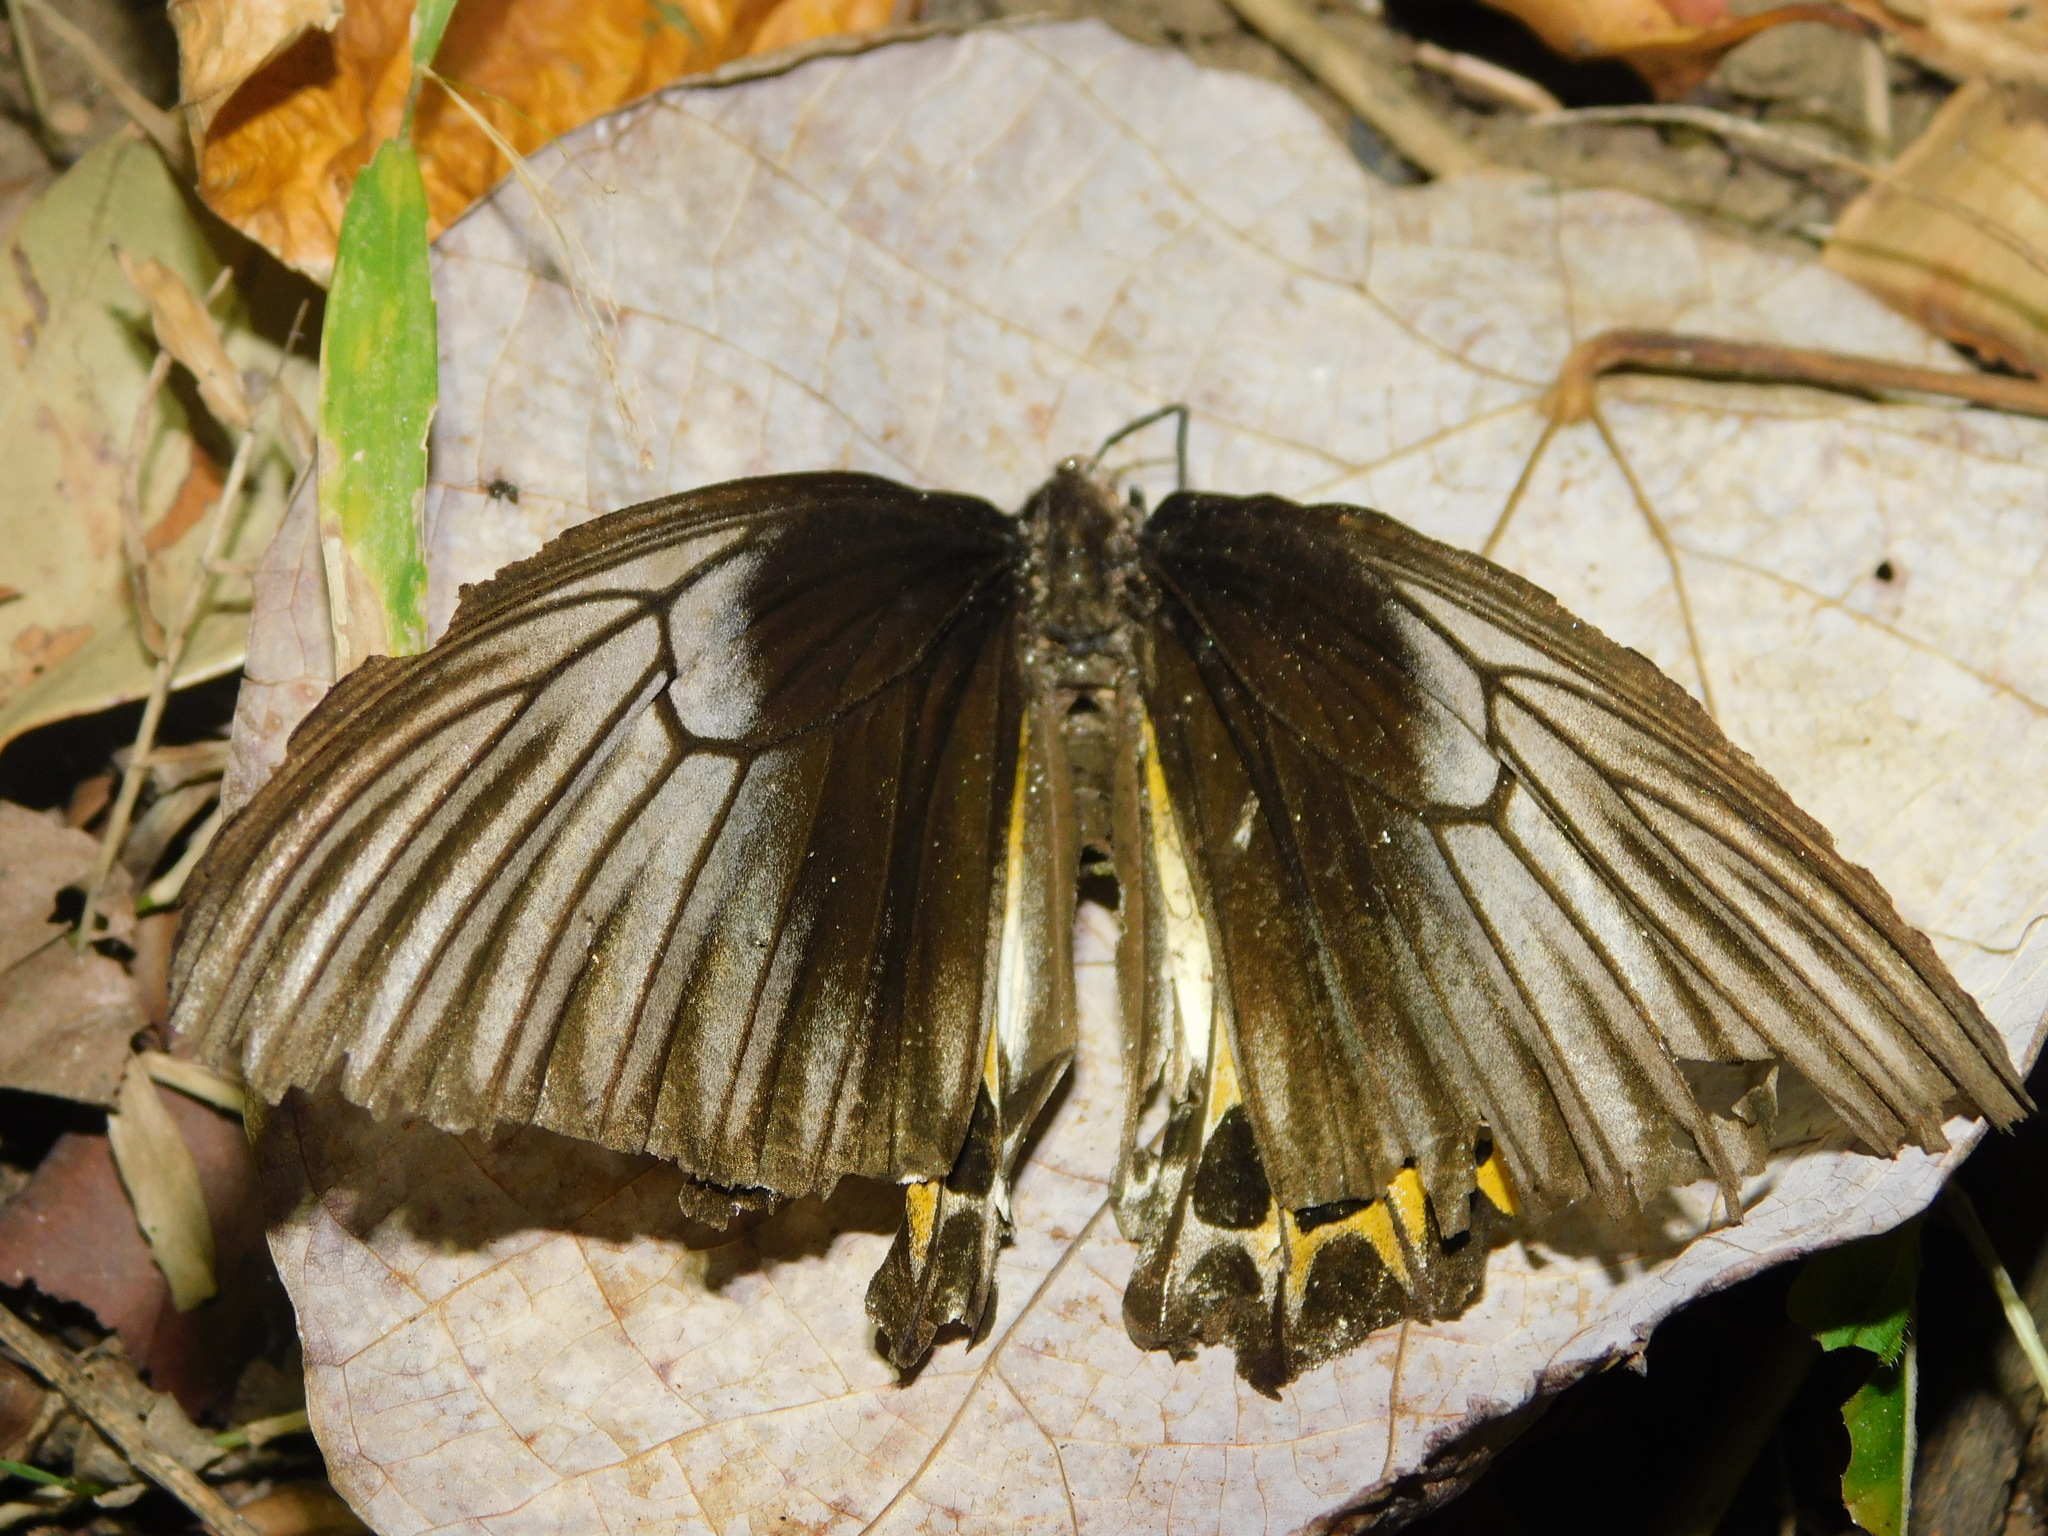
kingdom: Animalia
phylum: Arthropoda
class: Insecta
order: Lepidoptera
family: Papilionidae
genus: Troides
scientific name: Troides helena
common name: Common birdwing
